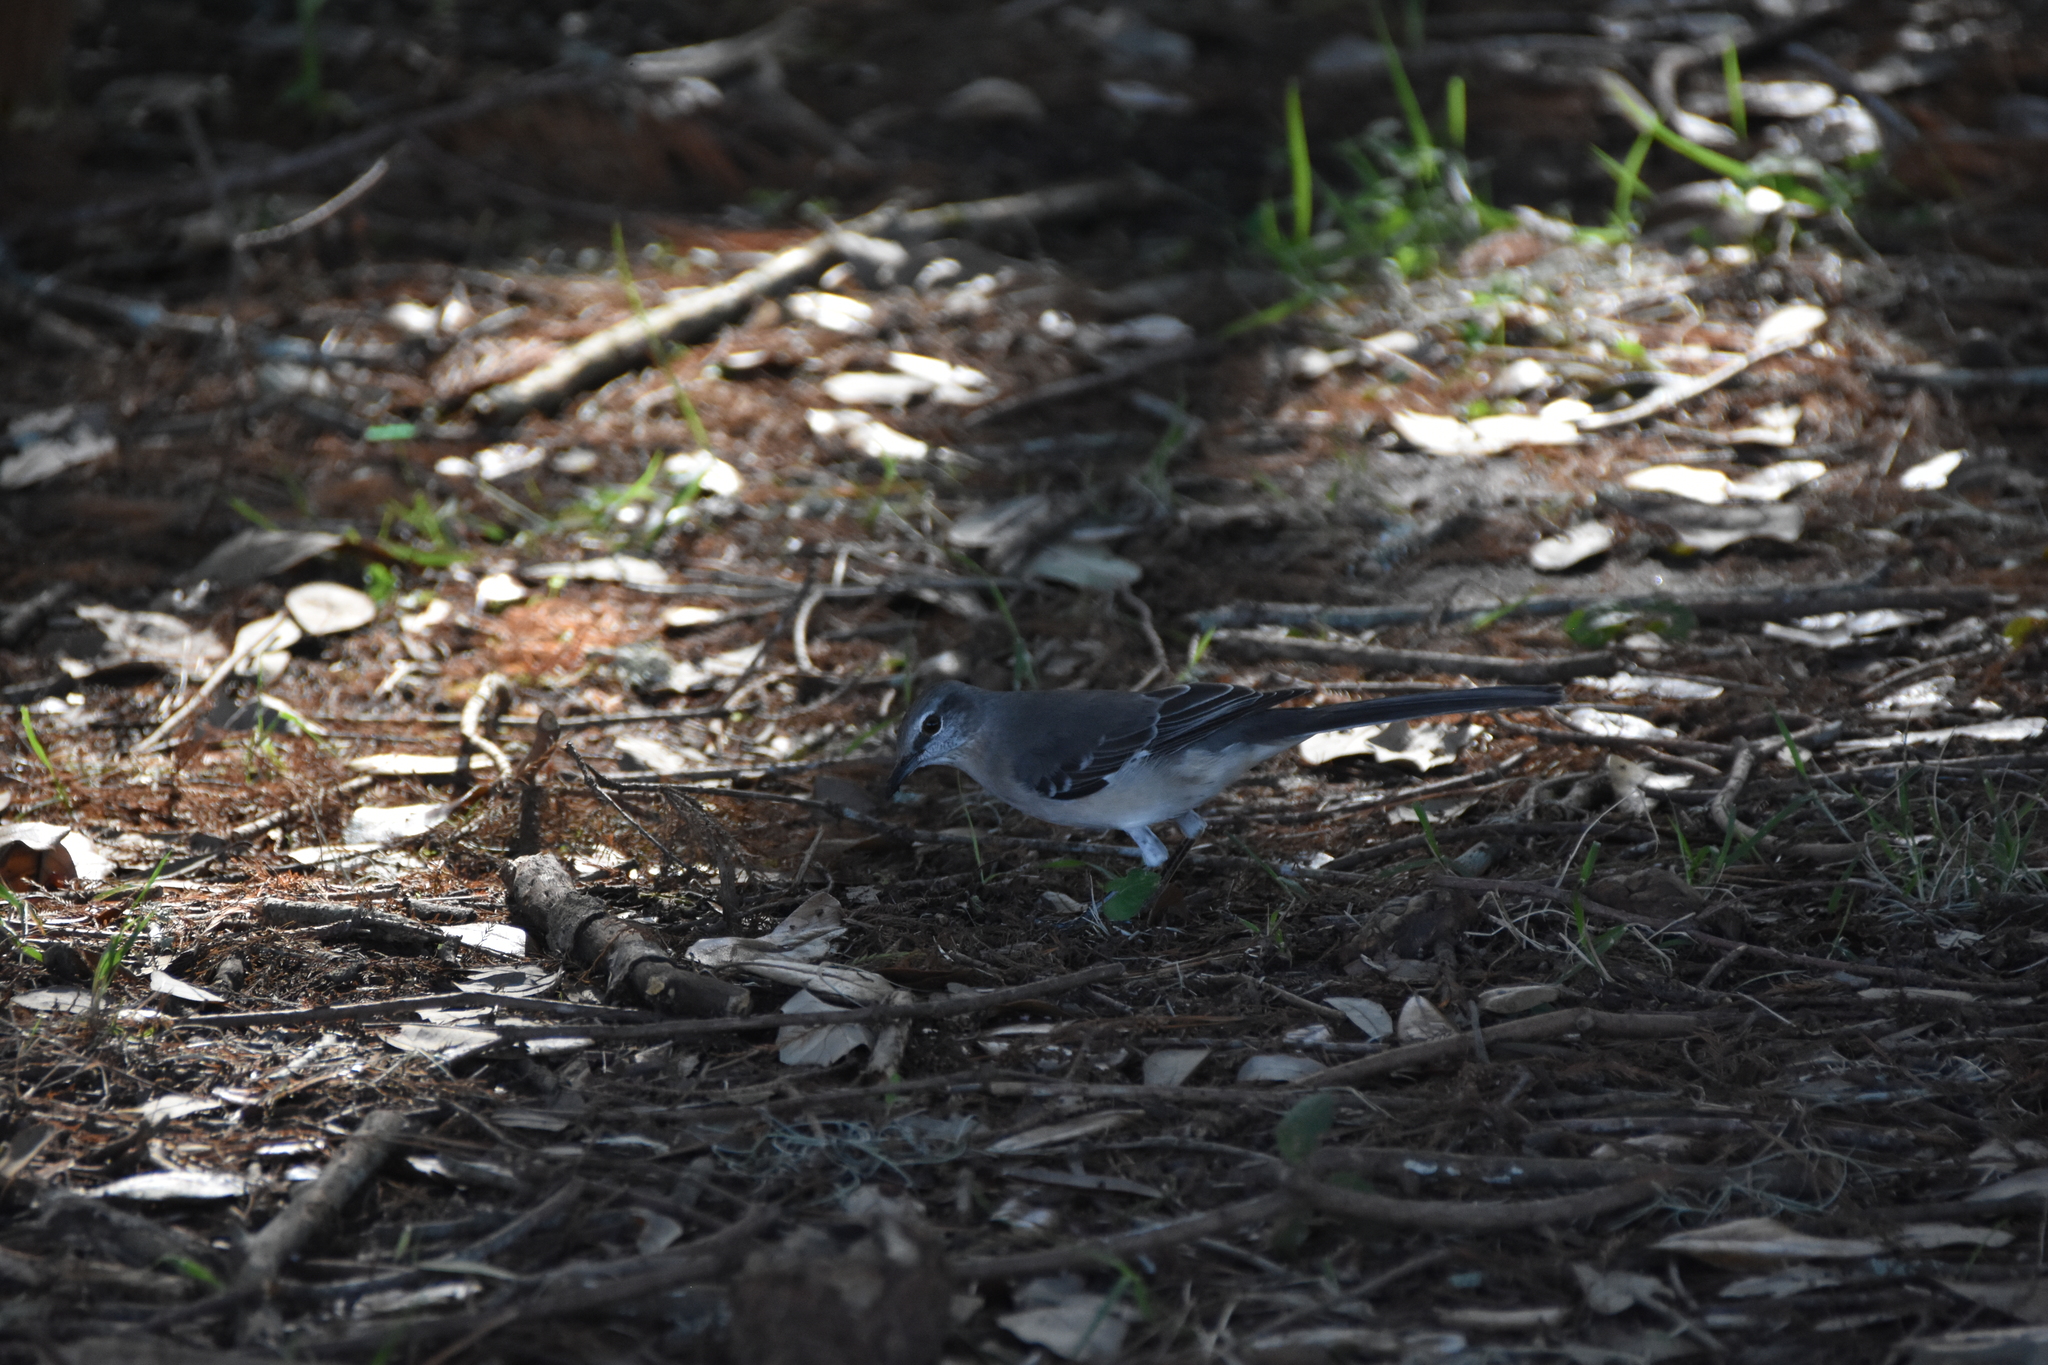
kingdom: Animalia
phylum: Chordata
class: Aves
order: Passeriformes
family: Mimidae
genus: Mimus
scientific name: Mimus polyglottos
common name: Northern mockingbird
